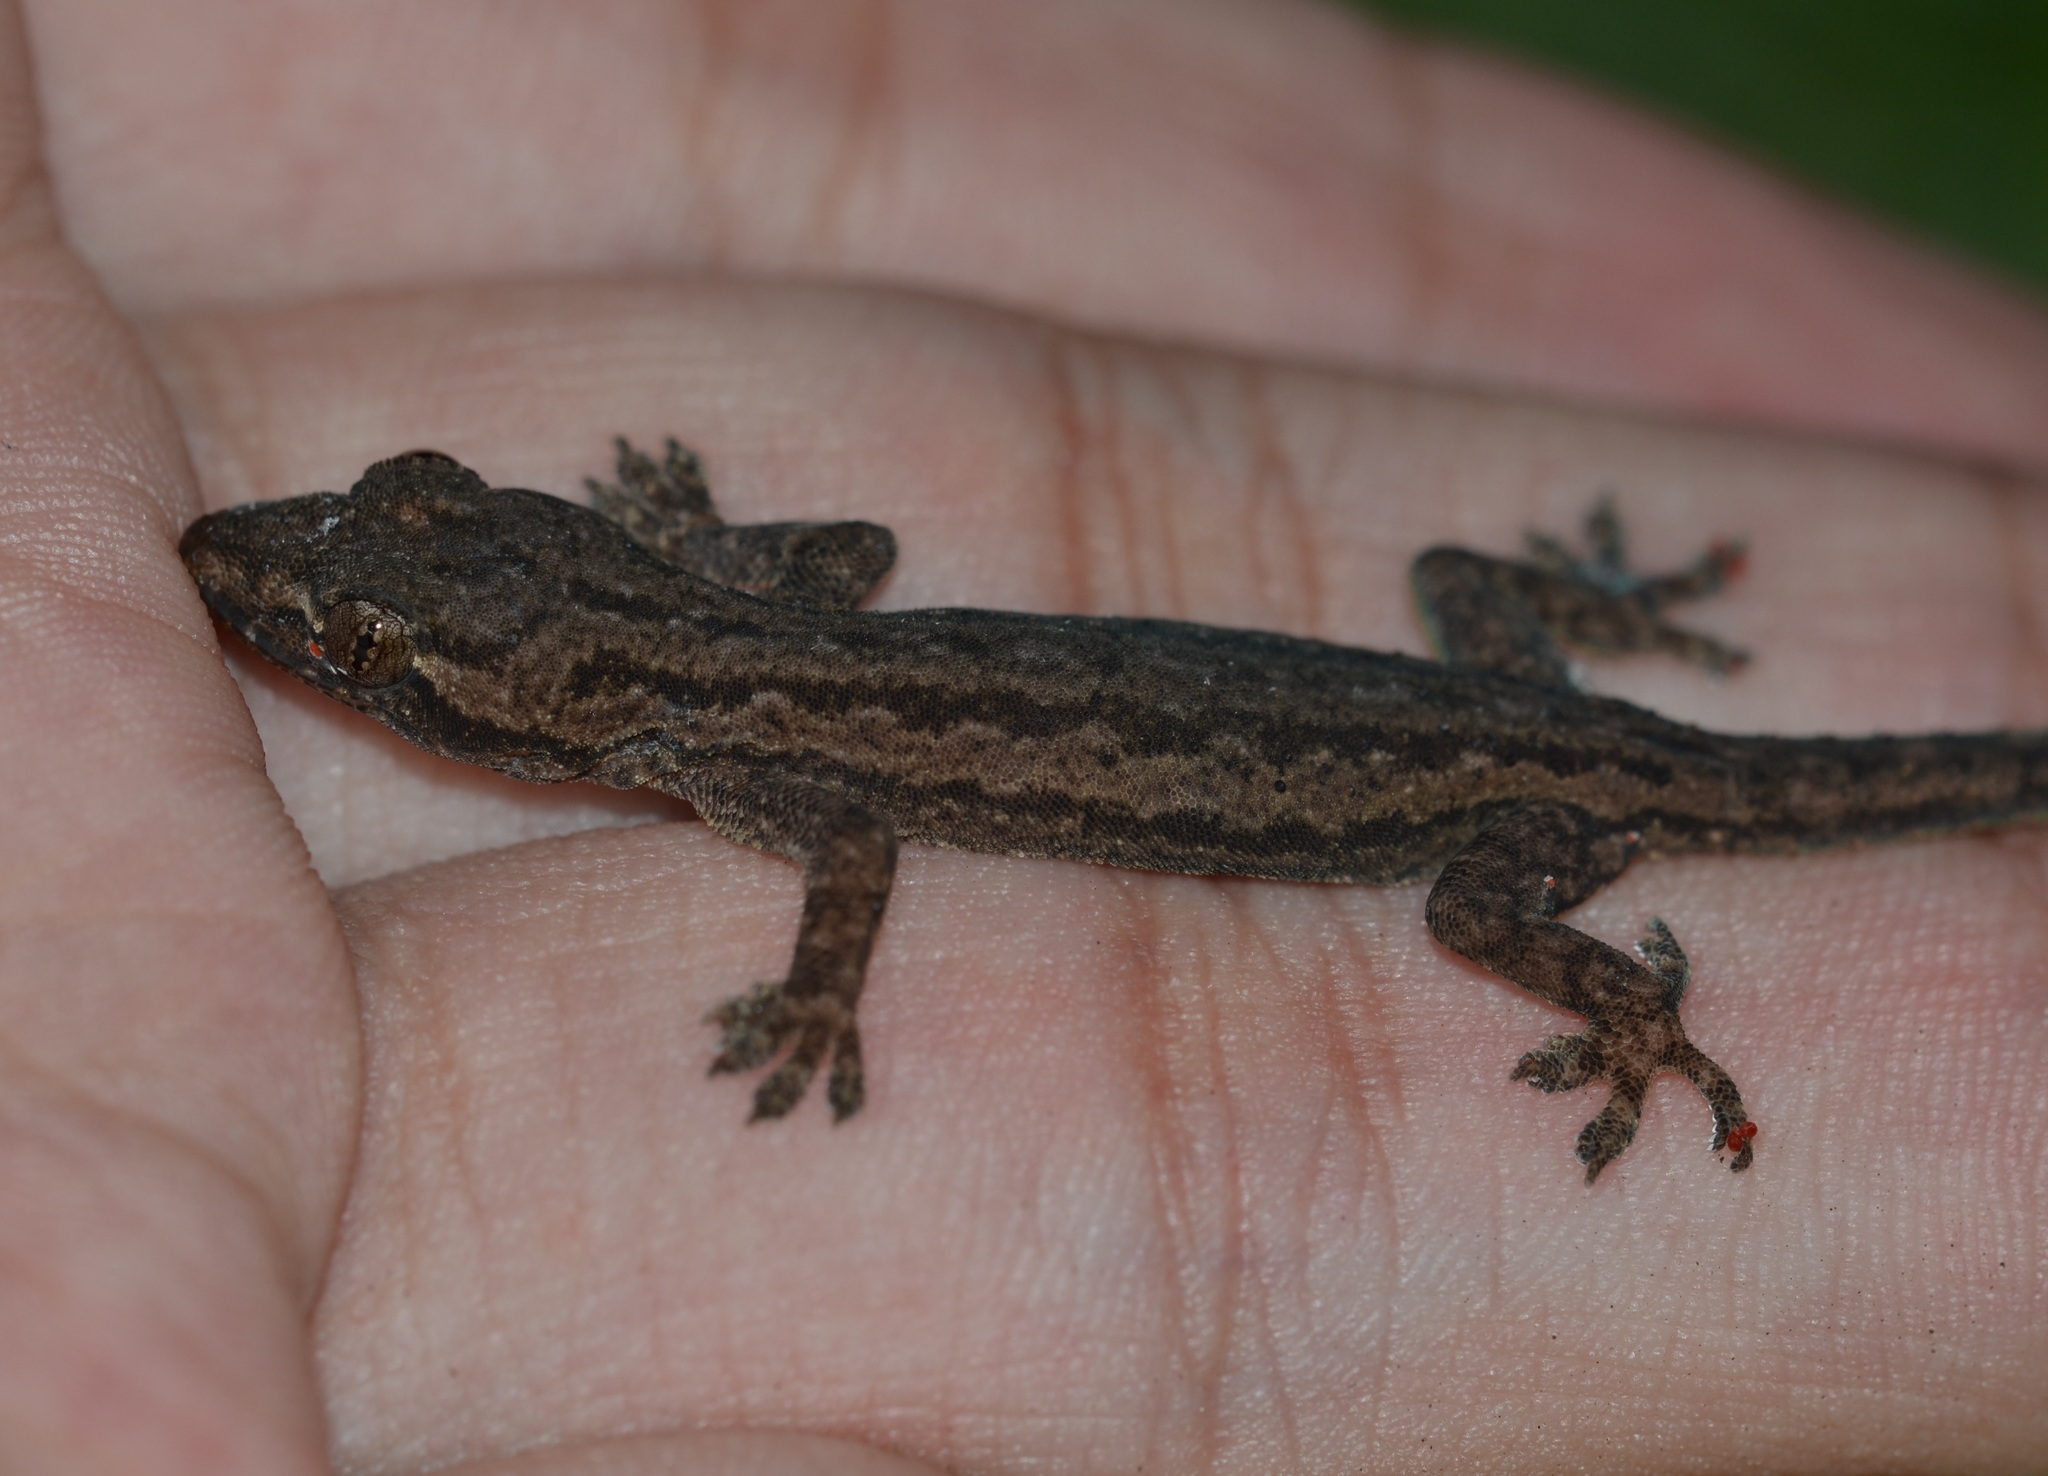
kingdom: Animalia
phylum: Chordata
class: Squamata
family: Gekkonidae
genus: Hemidactylus
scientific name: Hemidactylus frenatus
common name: Common house gecko
